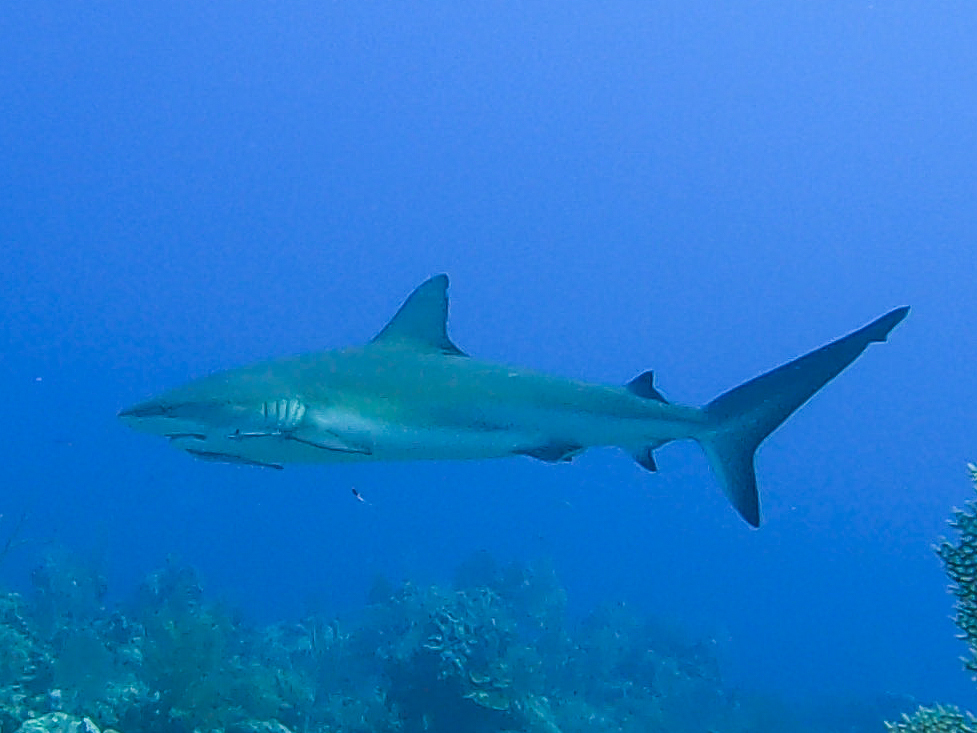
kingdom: Animalia
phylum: Chordata
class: Elasmobranchii
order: Carcharhiniformes
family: Carcharhinidae
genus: Carcharhinus
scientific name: Carcharhinus perezii
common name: Reef shark
